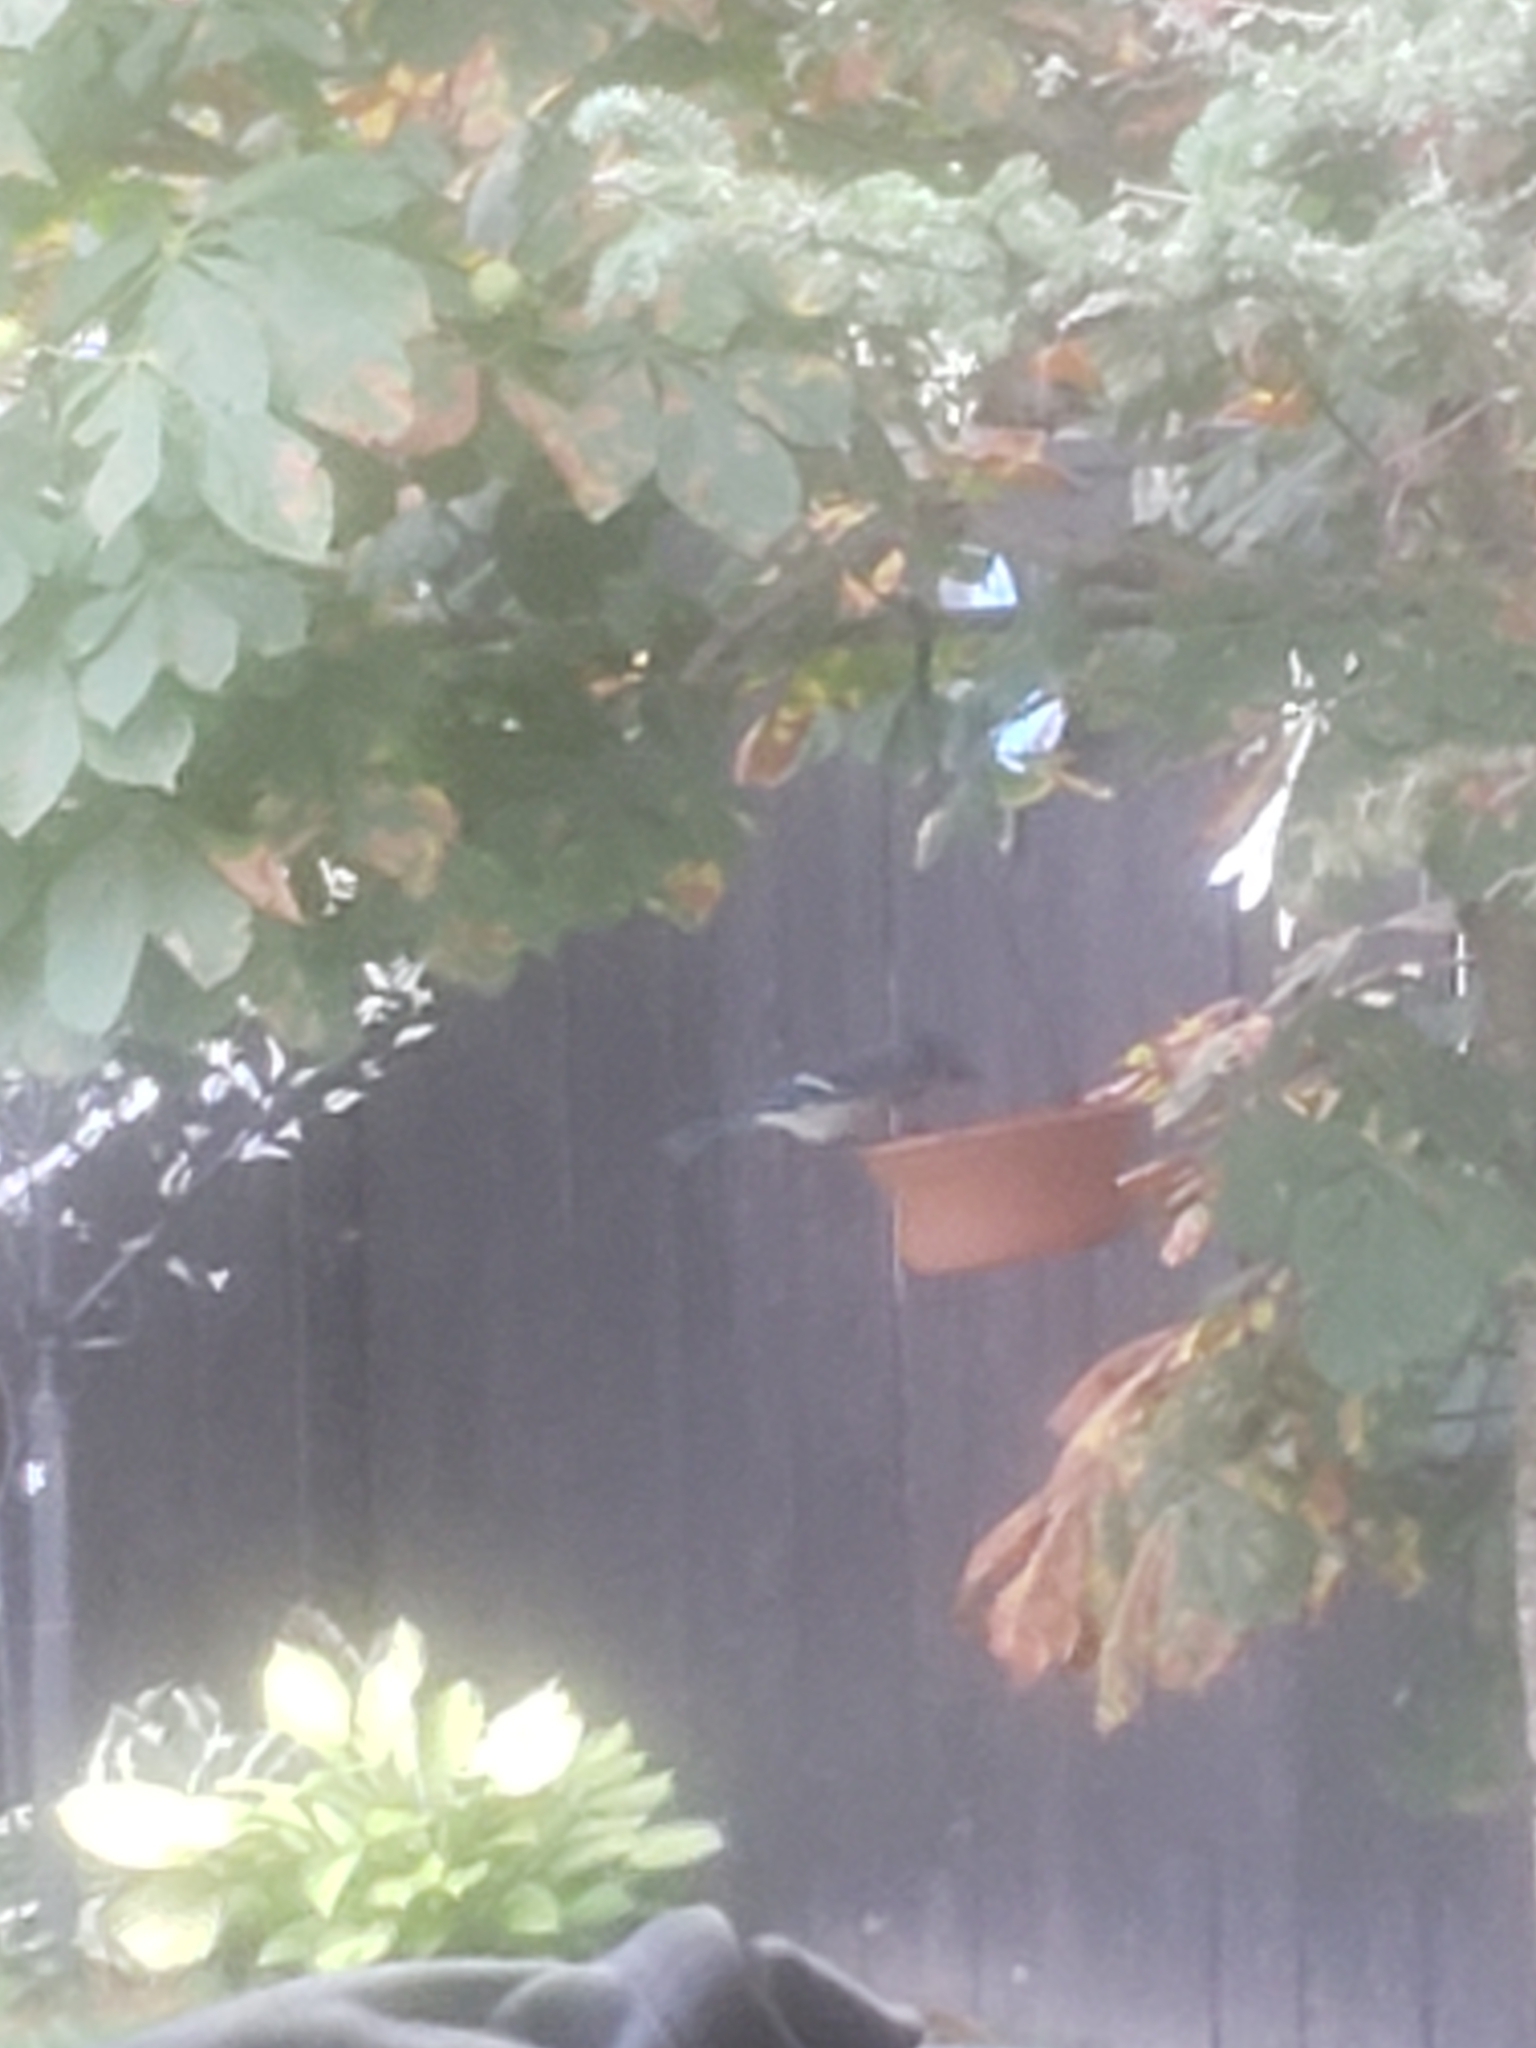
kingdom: Animalia
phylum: Chordata
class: Aves
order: Passeriformes
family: Corvidae
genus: Cyanocitta
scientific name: Cyanocitta cristata
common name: Blue jay
